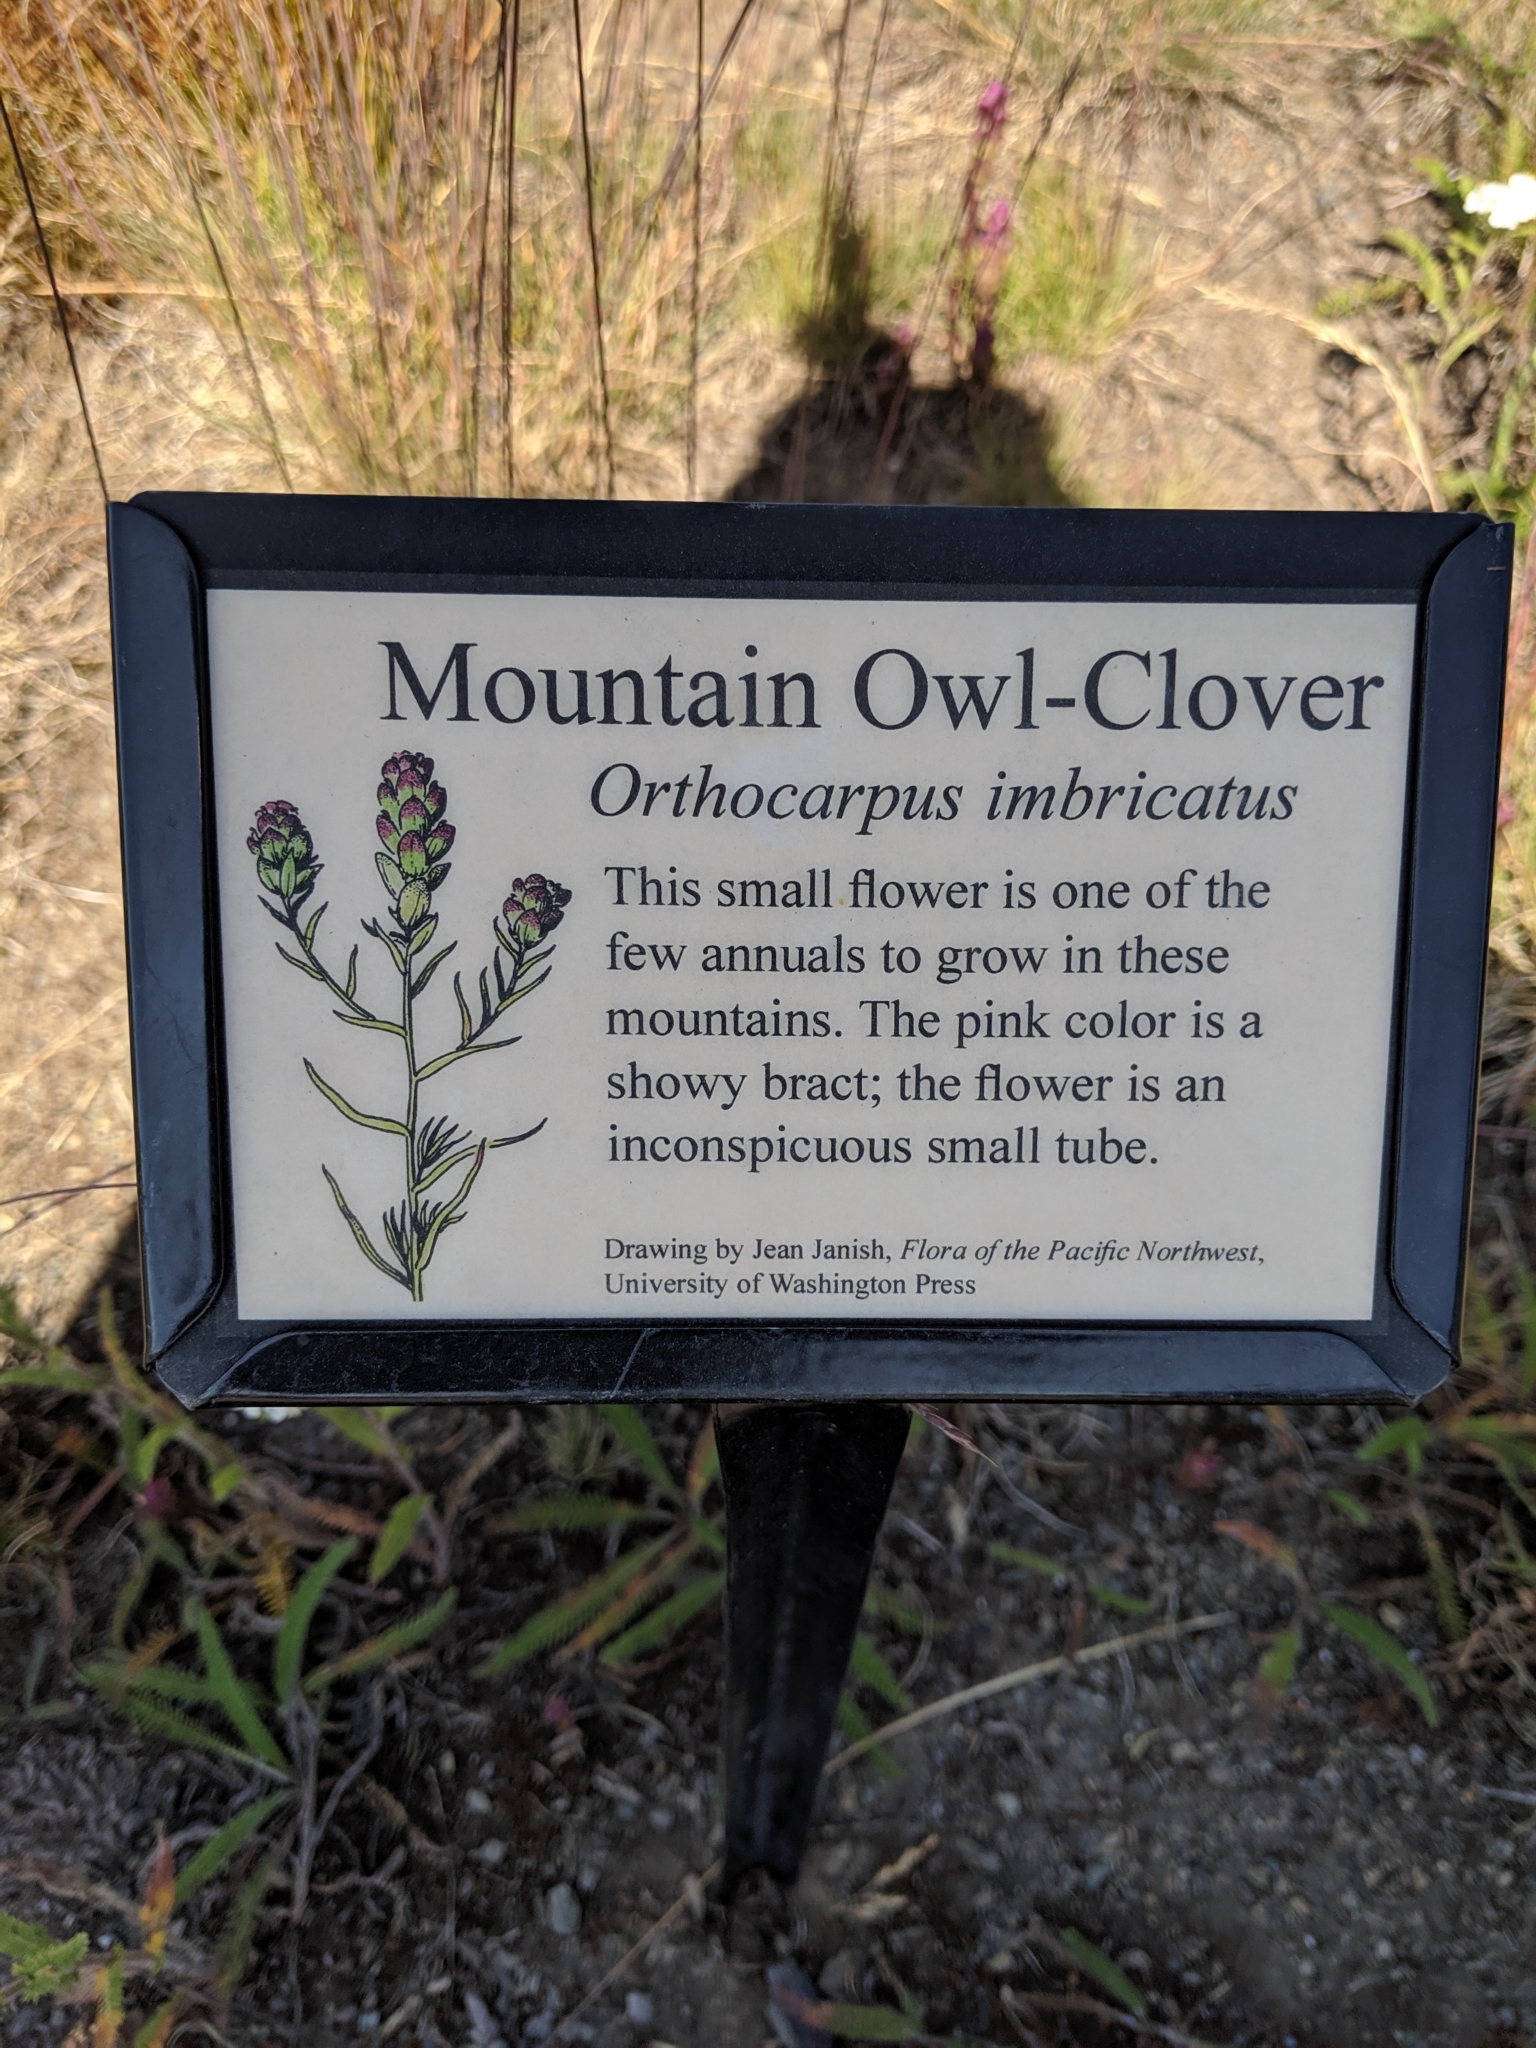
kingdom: Plantae
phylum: Tracheophyta
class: Magnoliopsida
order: Lamiales
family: Orobanchaceae
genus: Orthocarpus
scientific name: Orthocarpus imbricatus
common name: Mountain owl's-clover
